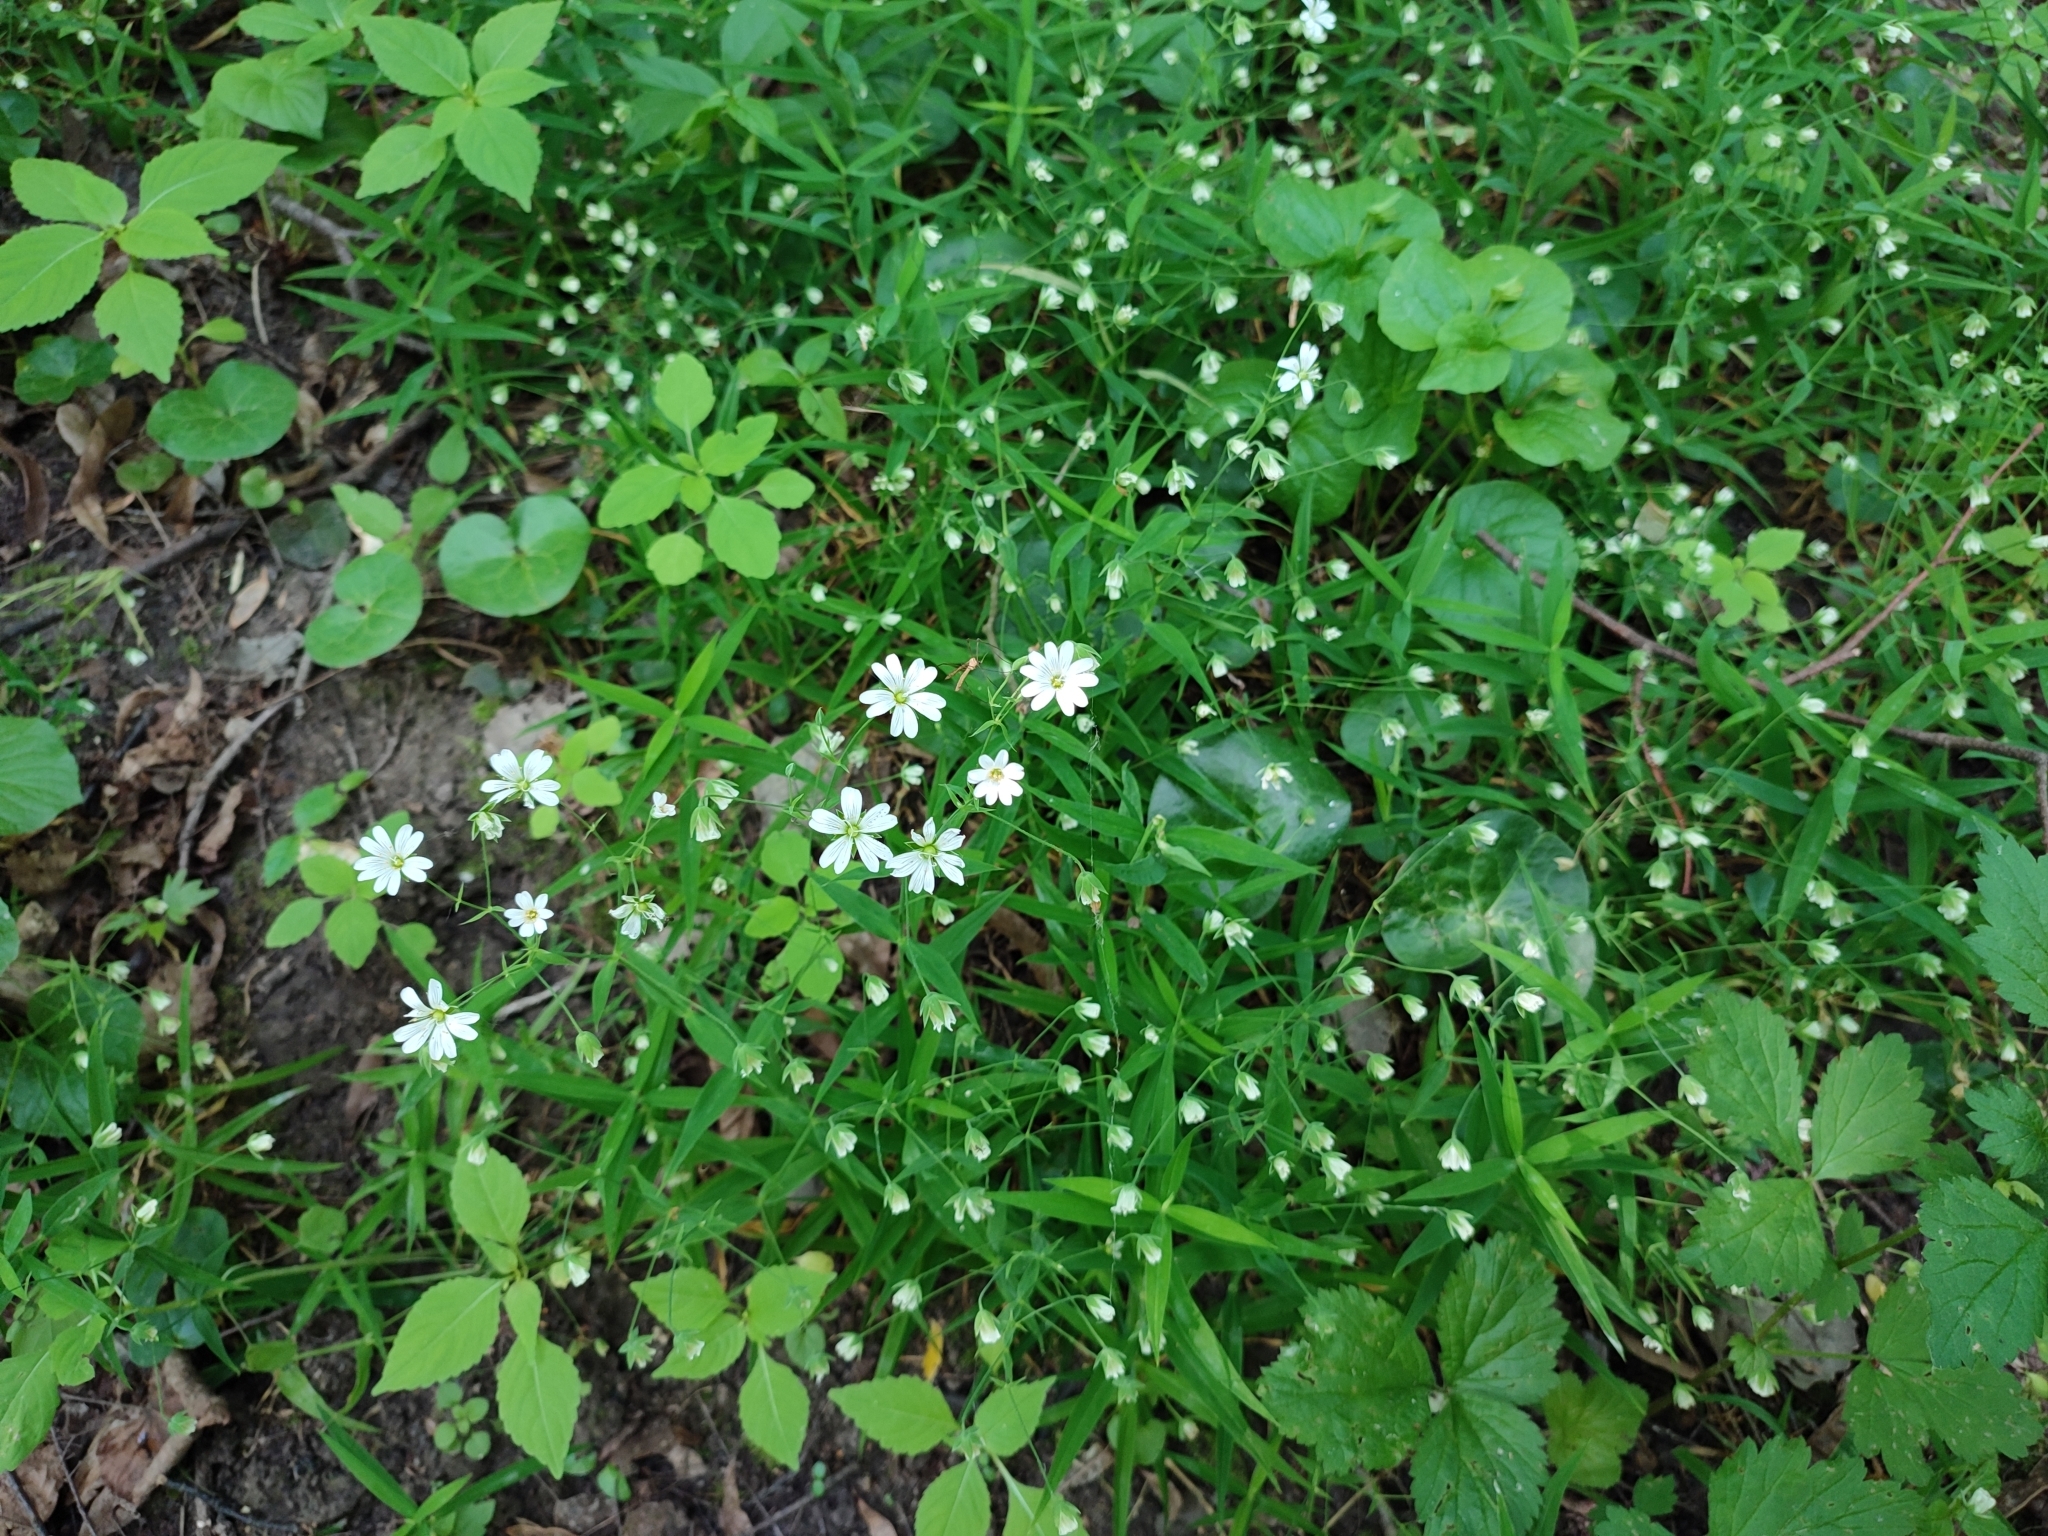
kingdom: Plantae
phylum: Tracheophyta
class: Magnoliopsida
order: Caryophyllales
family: Caryophyllaceae
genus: Rabelera
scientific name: Rabelera holostea
